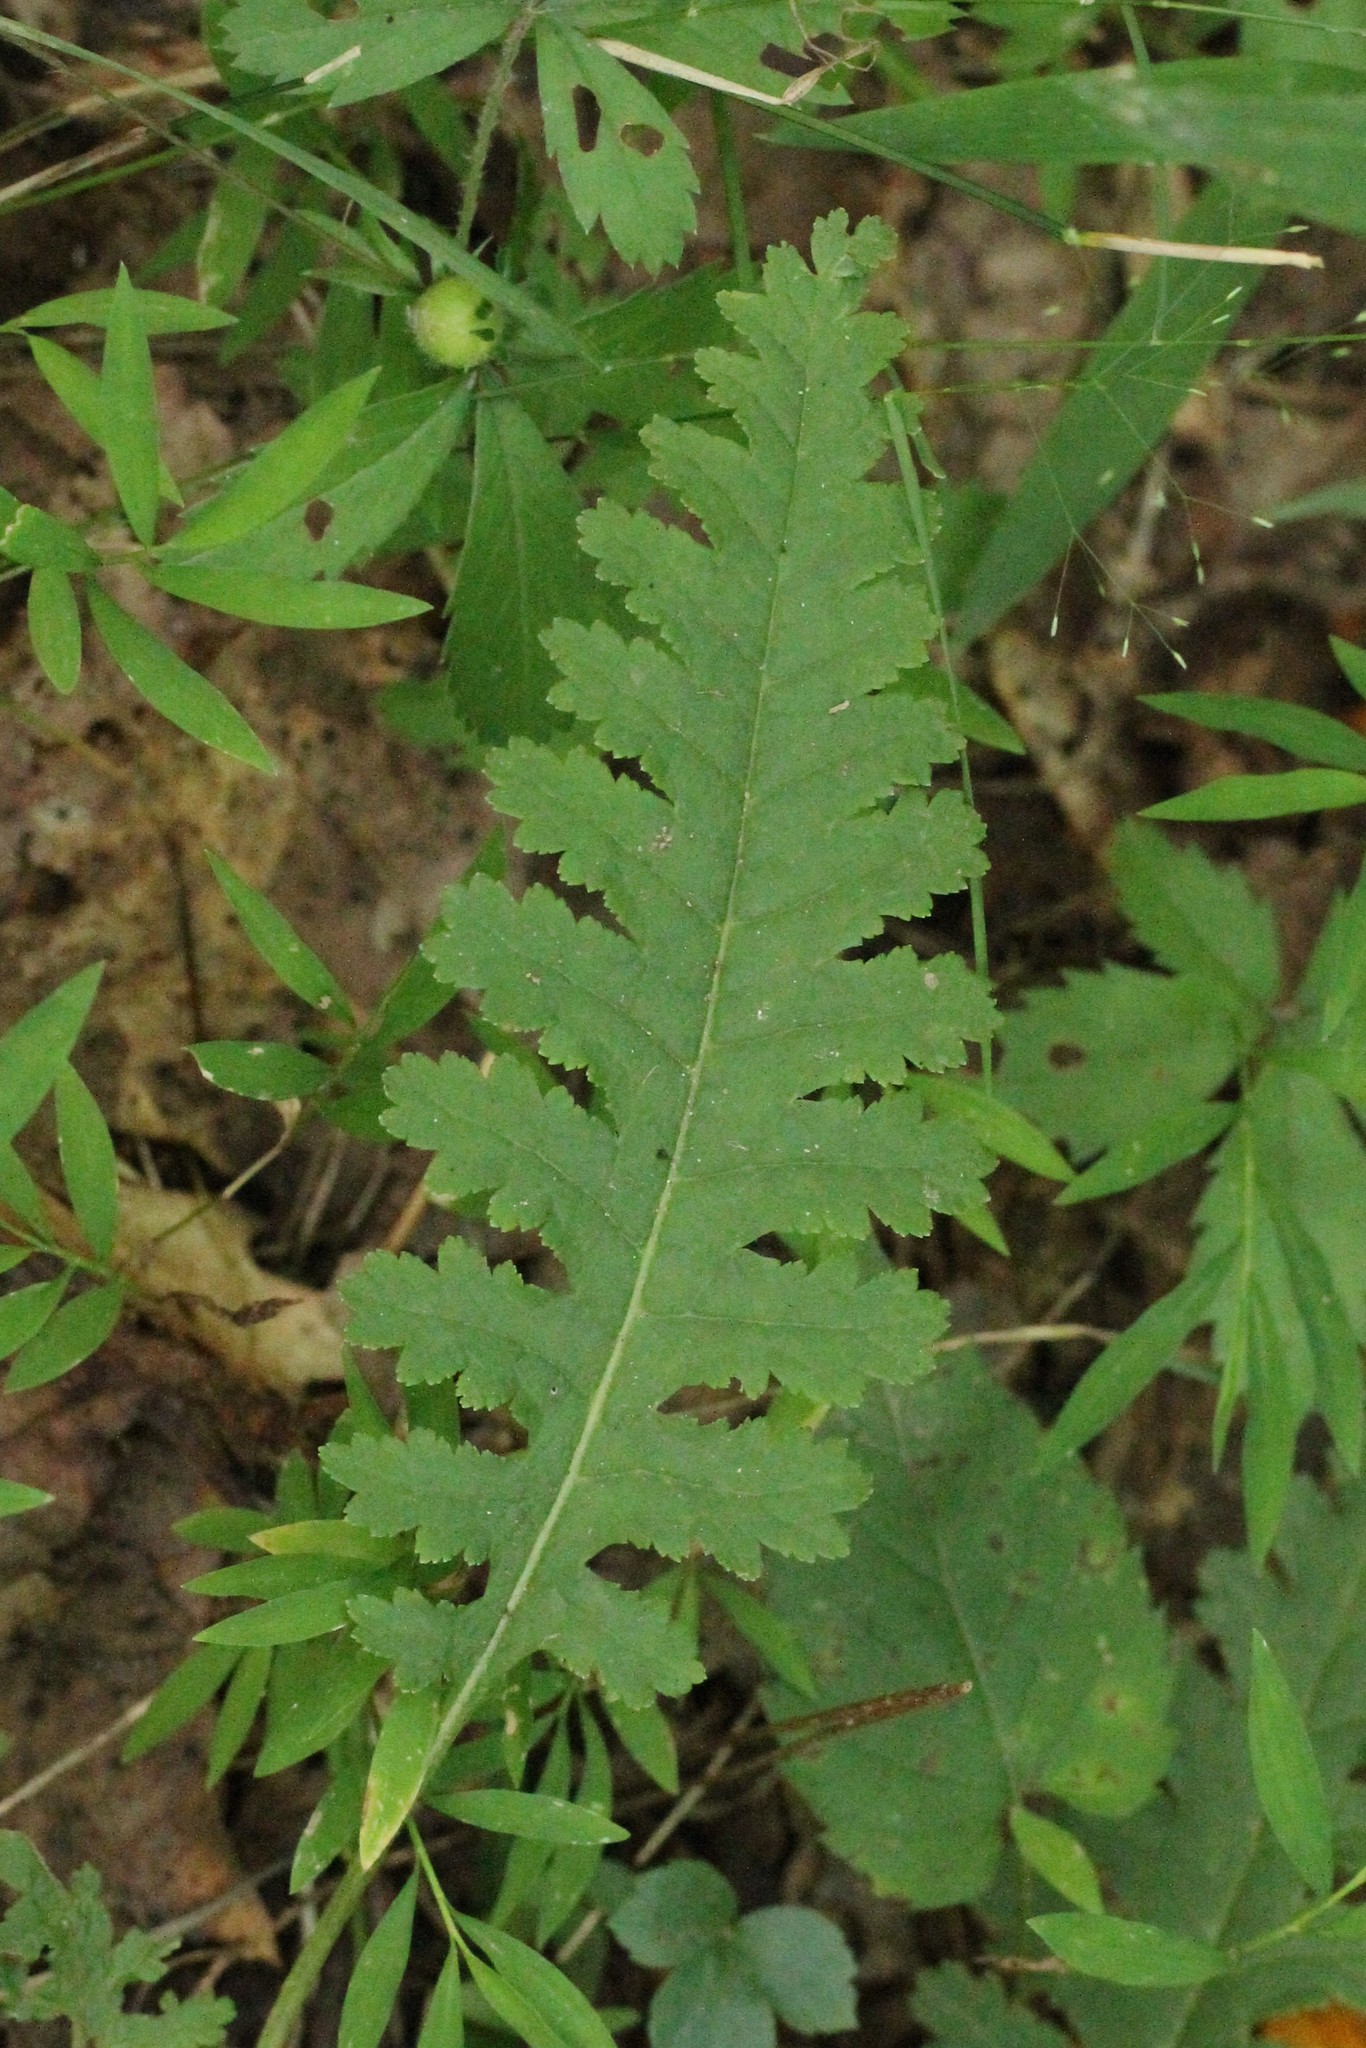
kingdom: Plantae
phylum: Tracheophyta
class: Magnoliopsida
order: Lamiales
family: Orobanchaceae
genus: Pedicularis
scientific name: Pedicularis canadensis
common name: Early lousewort
